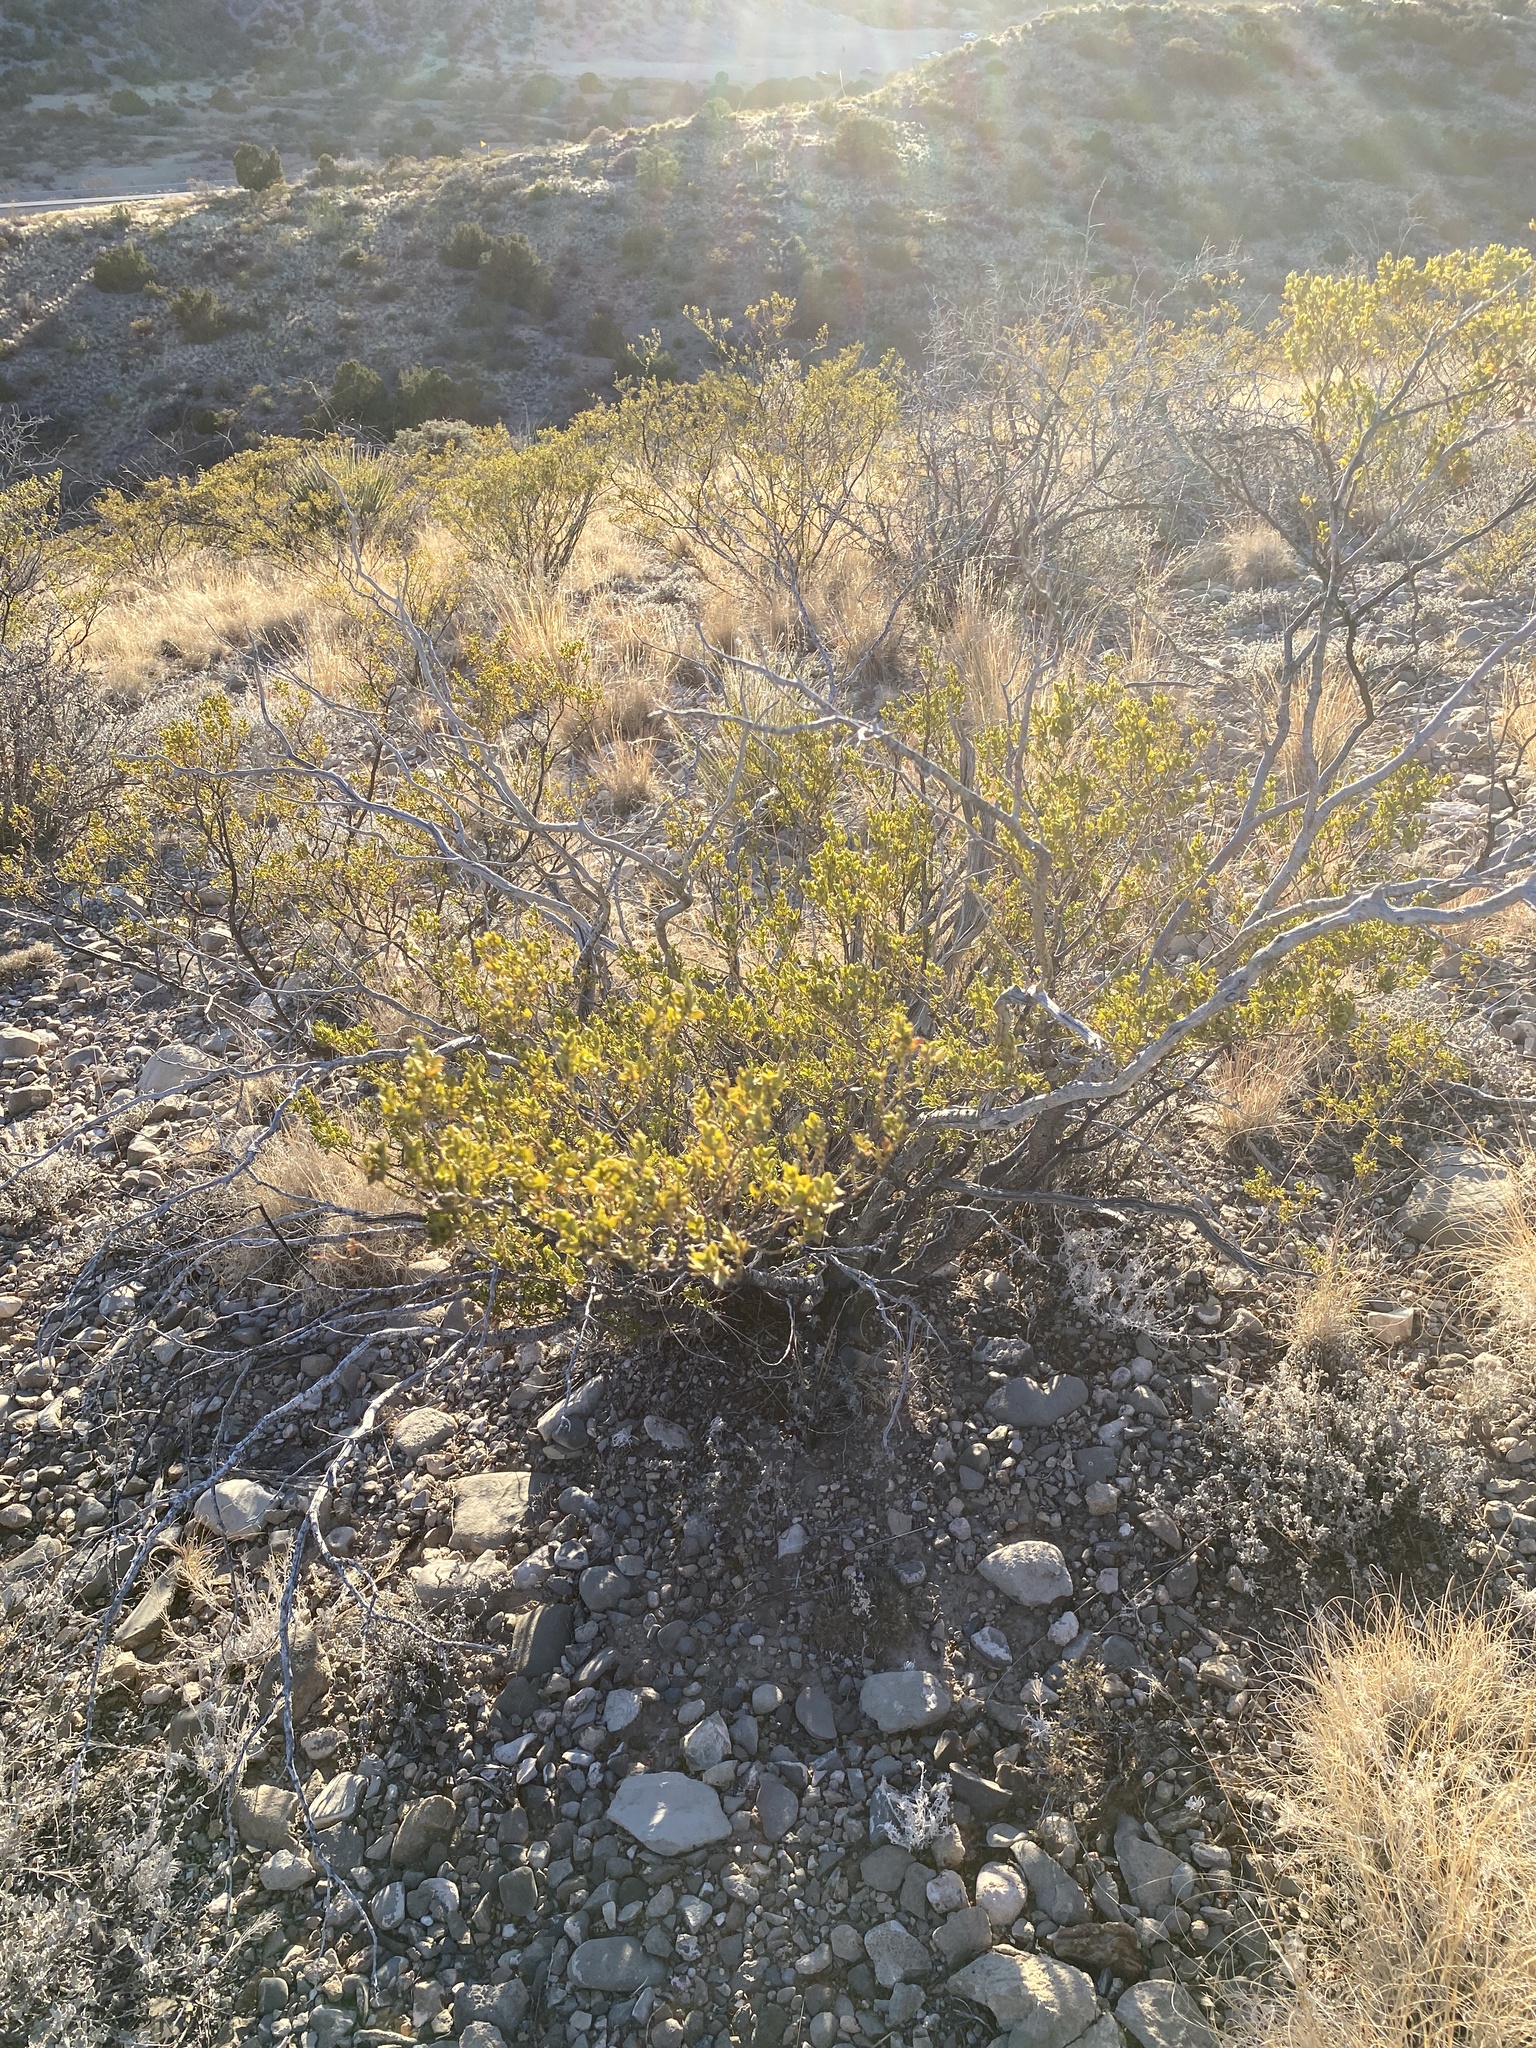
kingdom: Plantae
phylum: Tracheophyta
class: Magnoliopsida
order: Zygophyllales
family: Zygophyllaceae
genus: Larrea
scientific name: Larrea tridentata
